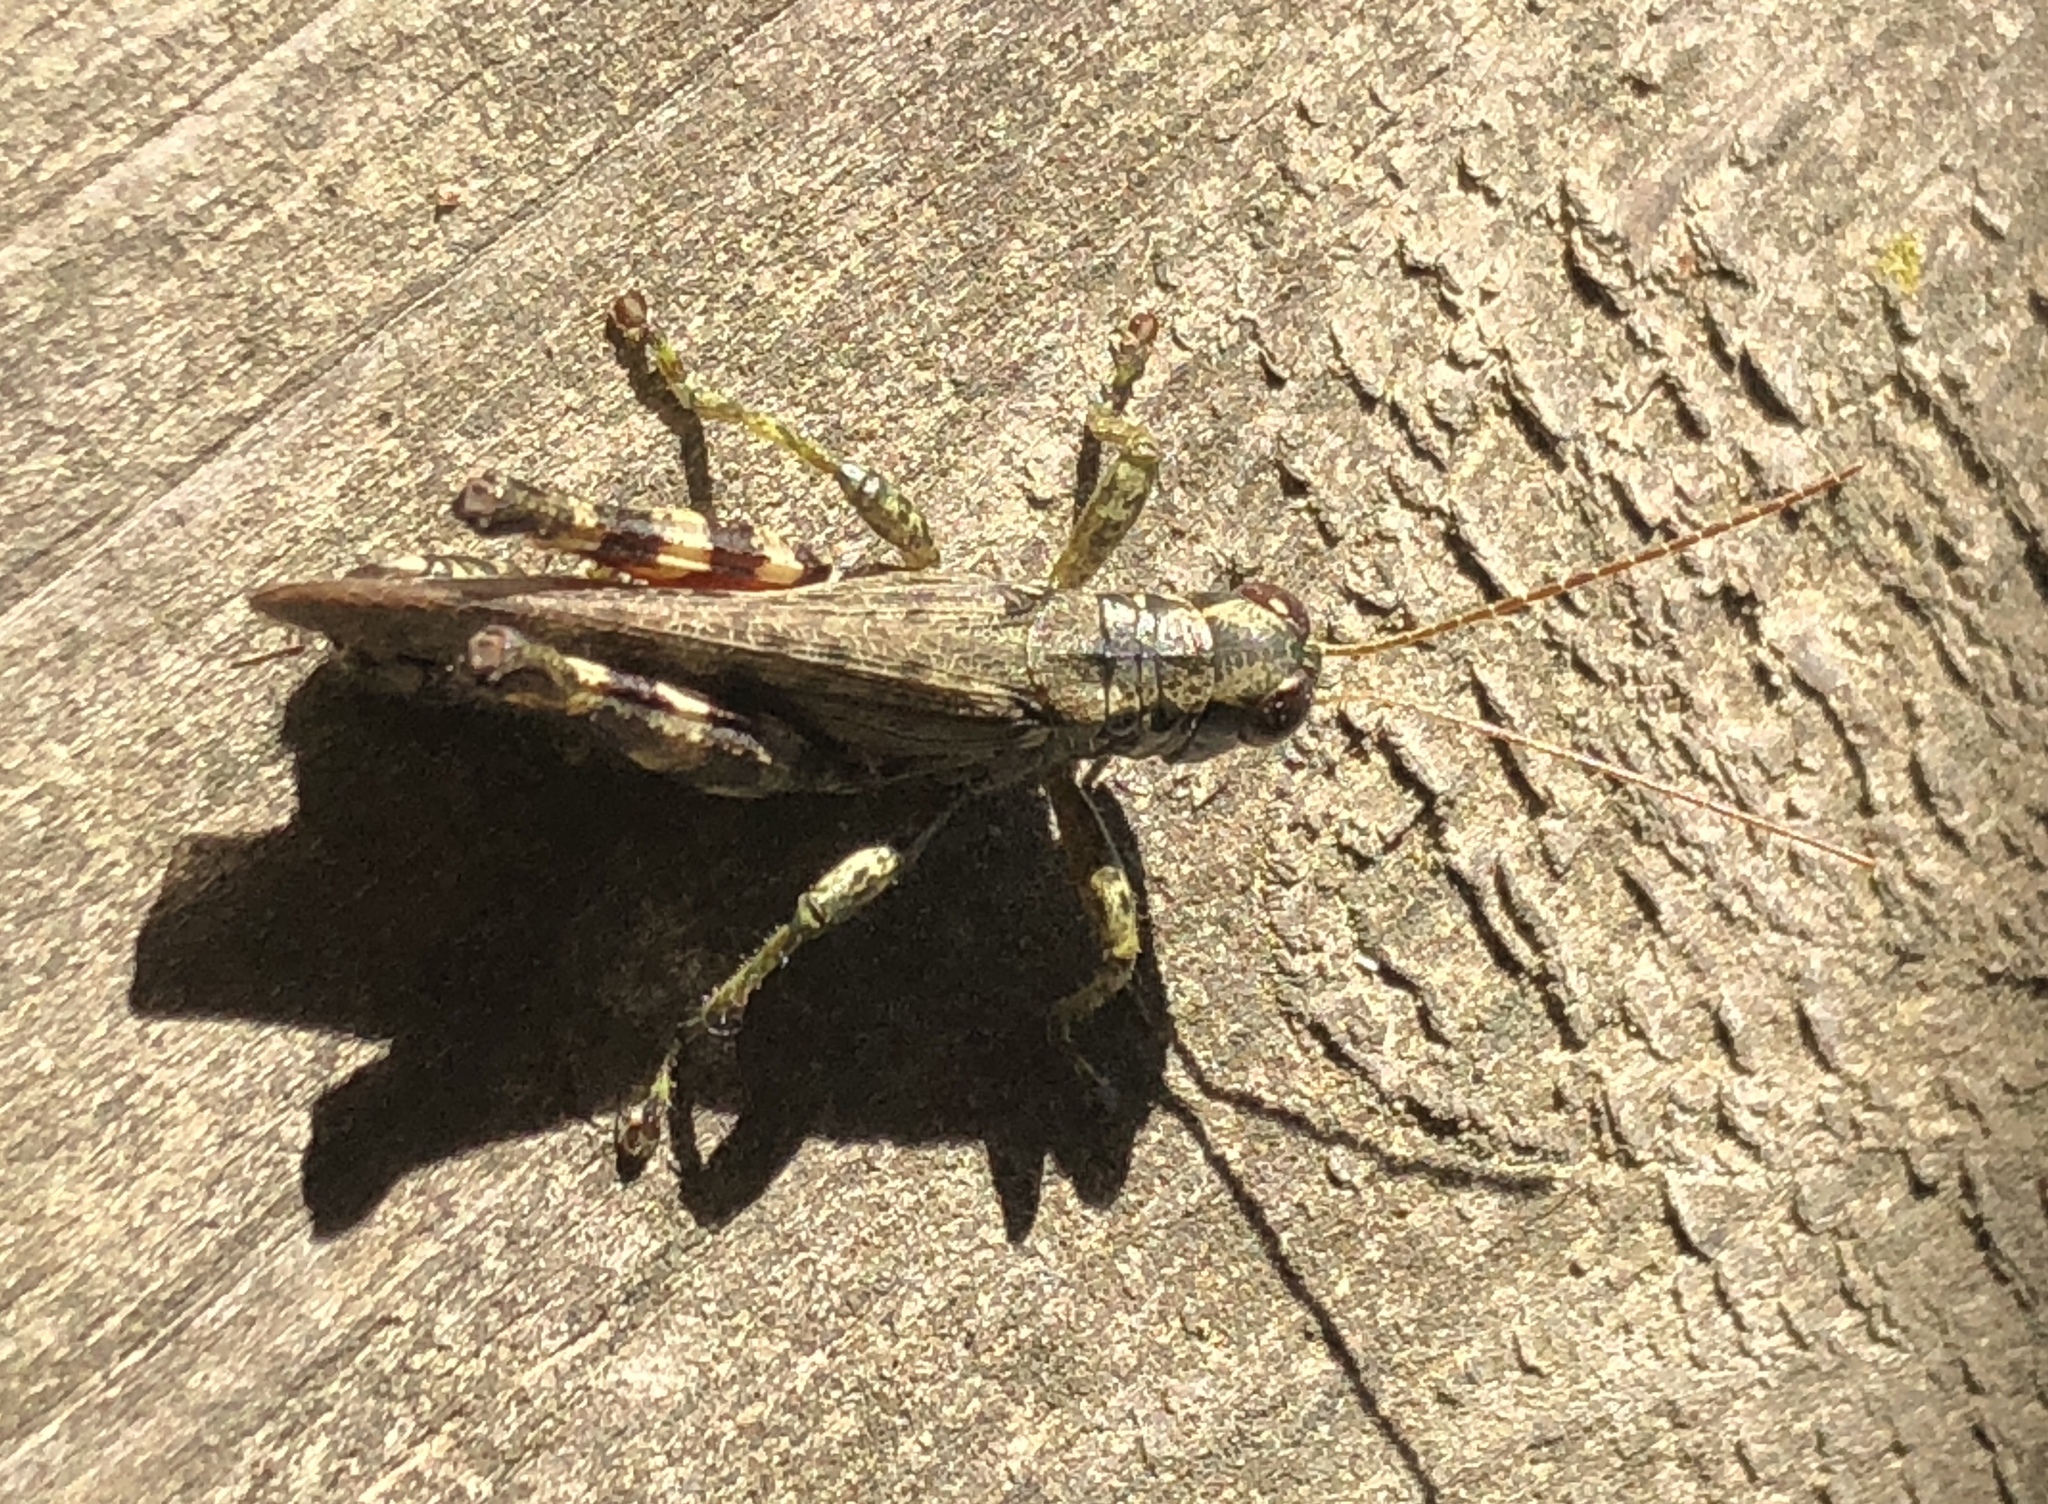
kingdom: Animalia
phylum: Arthropoda
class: Insecta
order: Orthoptera
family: Acrididae
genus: Melanoplus
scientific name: Melanoplus punctulatus
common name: Pine-tree spur-throat grasshopper
